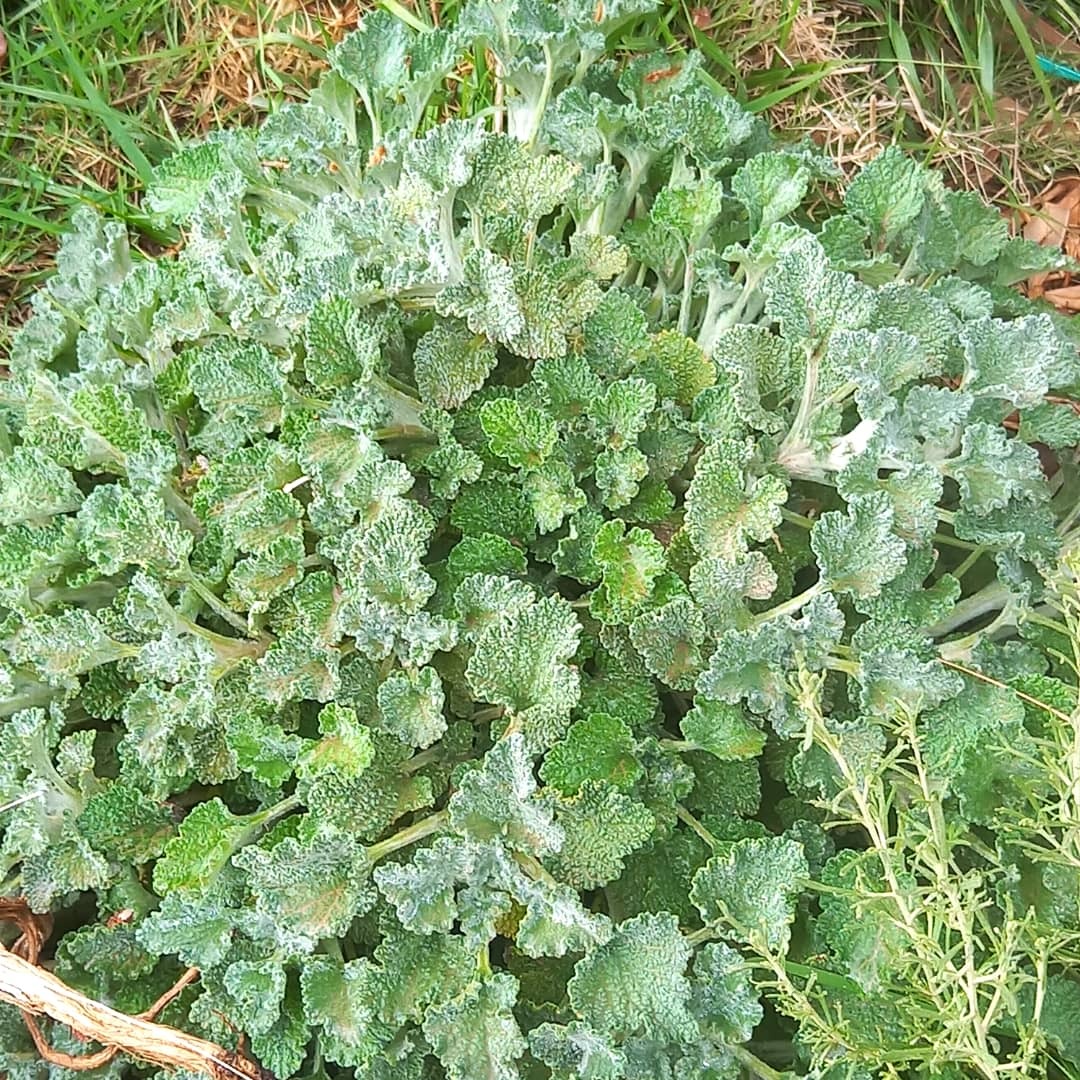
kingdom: Plantae
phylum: Tracheophyta
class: Magnoliopsida
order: Lamiales
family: Lamiaceae
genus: Marrubium
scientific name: Marrubium vulgare
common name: Horehound
